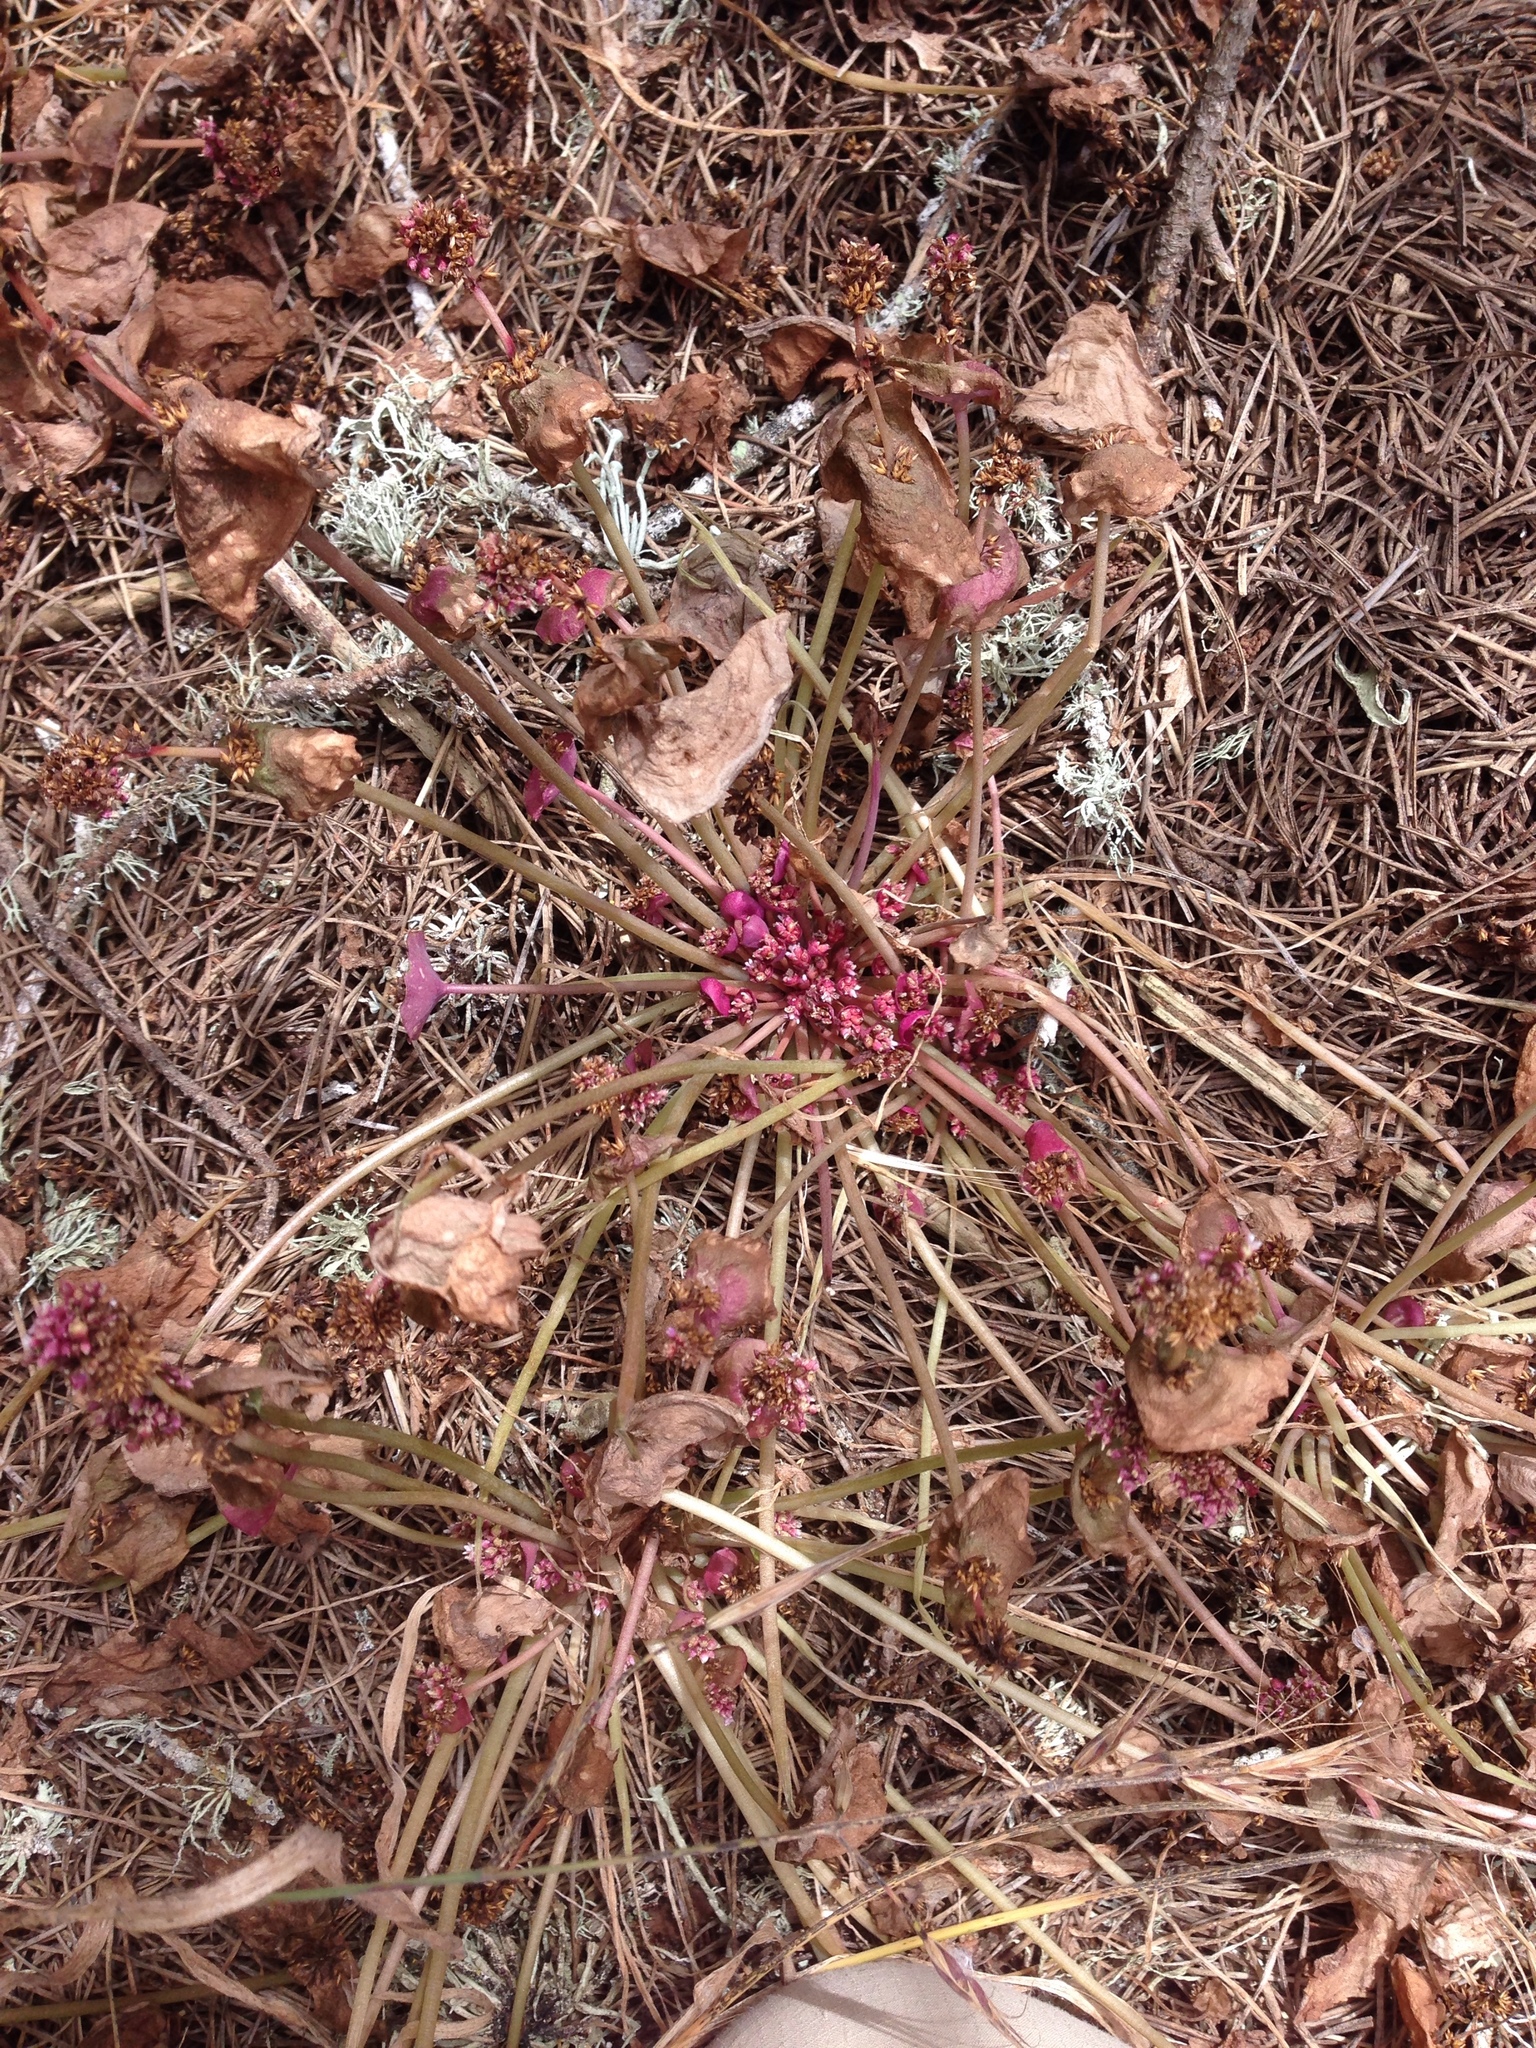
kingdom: Plantae
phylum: Tracheophyta
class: Magnoliopsida
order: Caryophyllales
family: Montiaceae
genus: Claytonia
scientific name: Claytonia perfoliata
